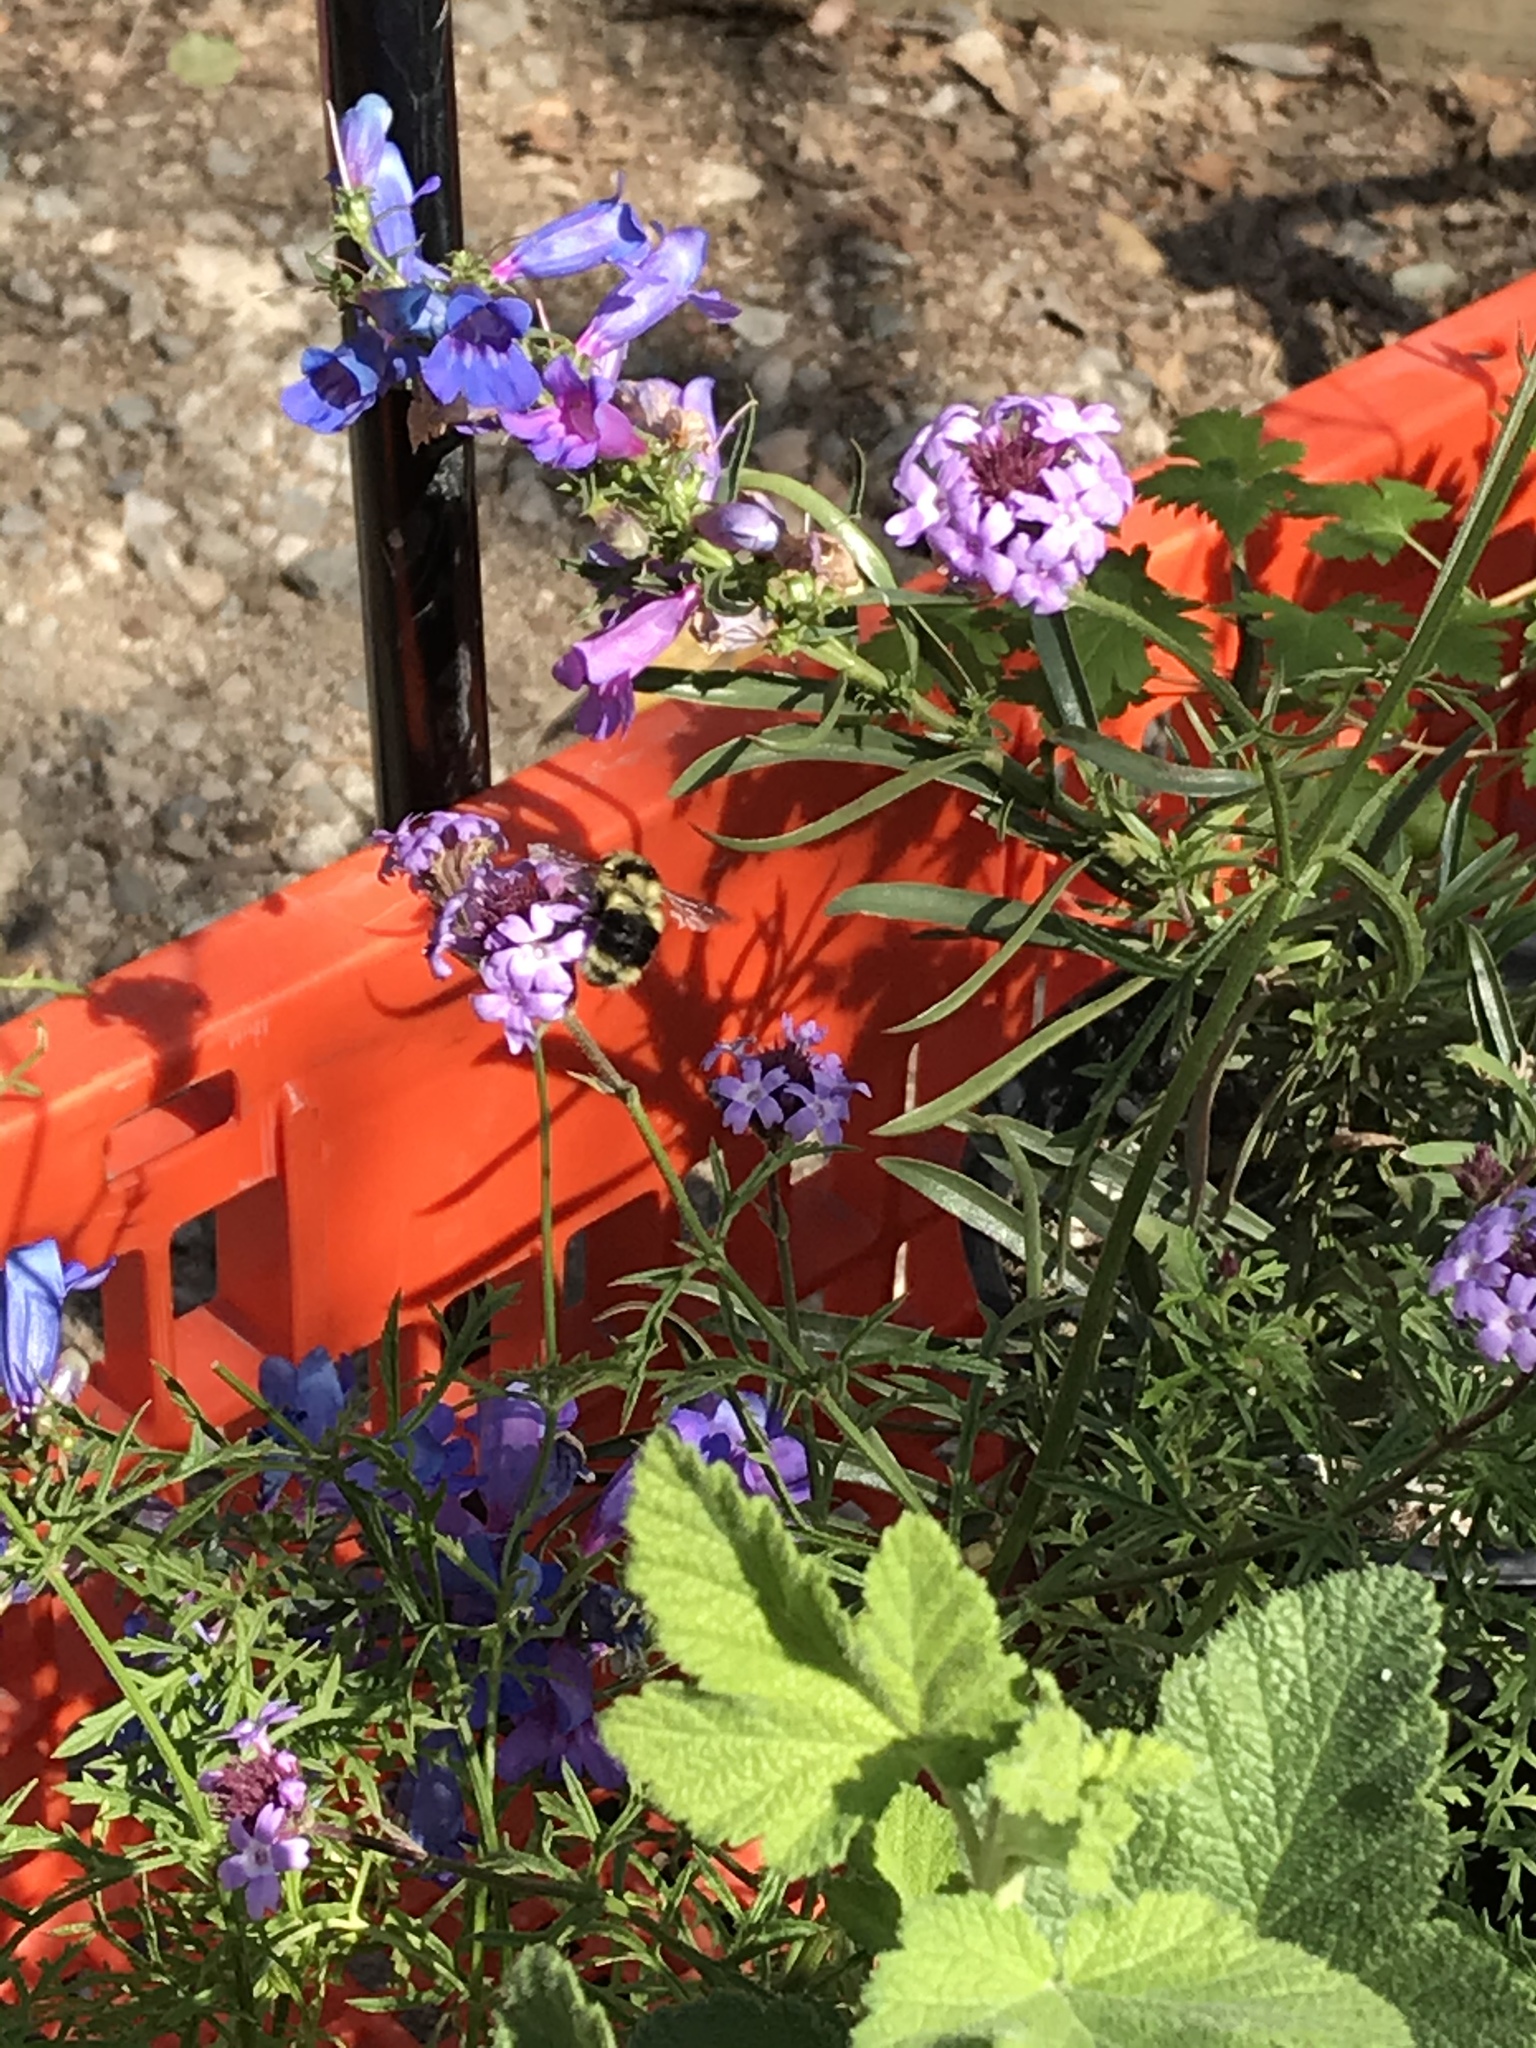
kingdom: Animalia
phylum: Arthropoda
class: Insecta
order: Hymenoptera
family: Apidae
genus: Bombus
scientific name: Bombus melanopygus
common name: Black tail bumble bee
